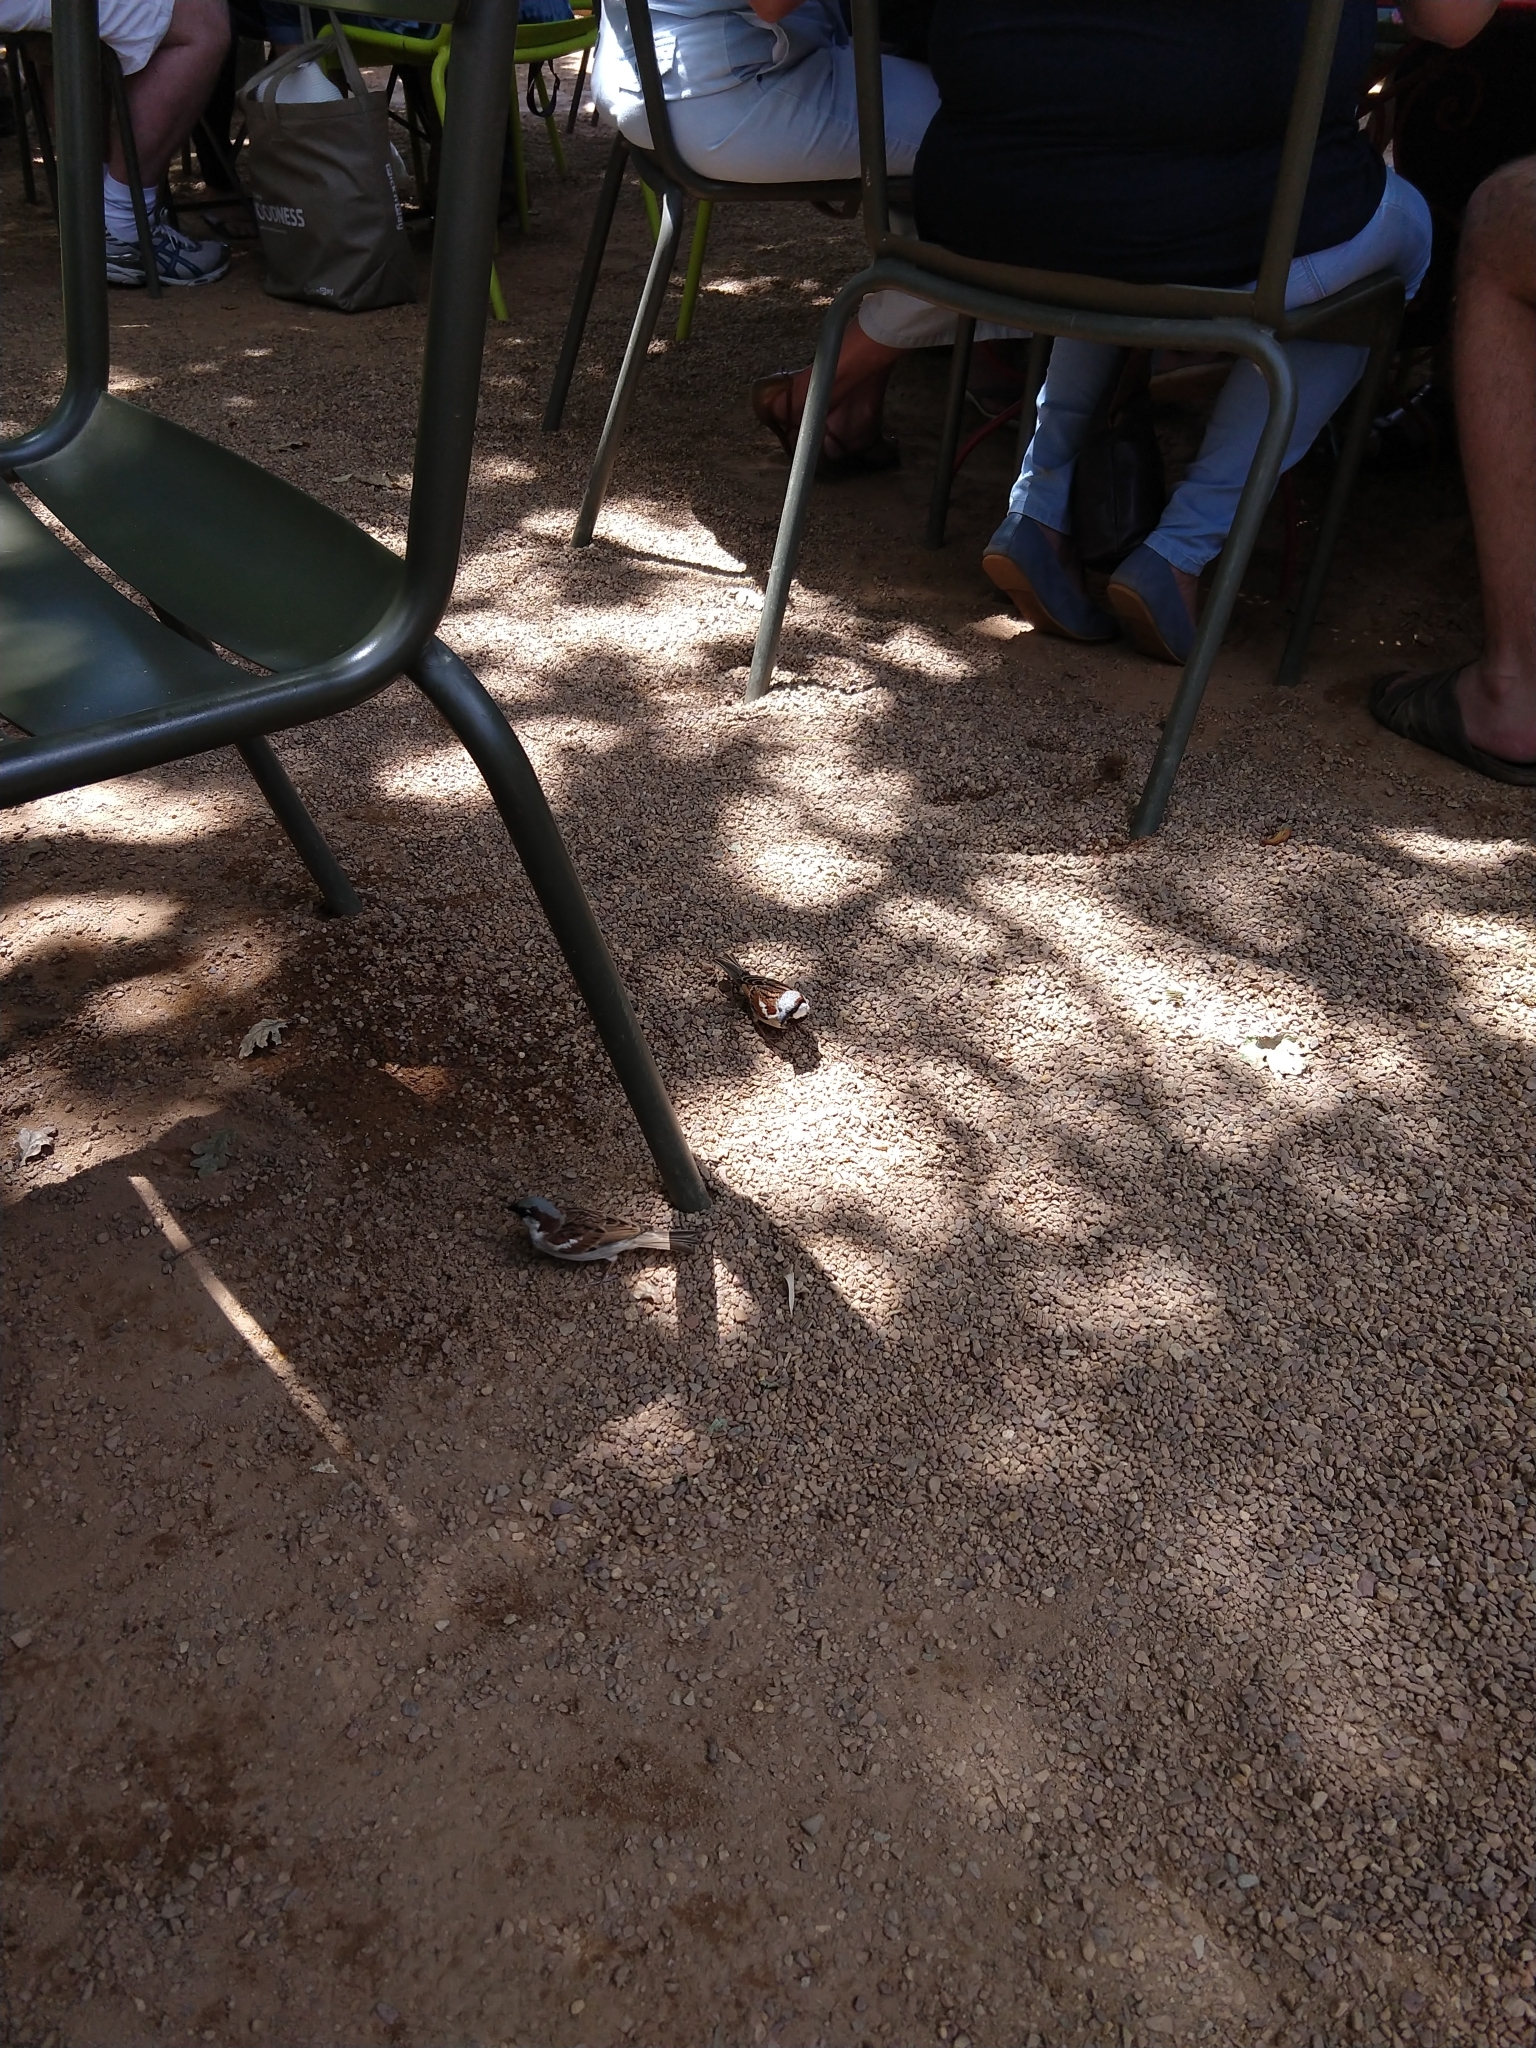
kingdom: Animalia
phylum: Chordata
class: Aves
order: Passeriformes
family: Passeridae
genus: Passer
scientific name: Passer domesticus
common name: House sparrow
